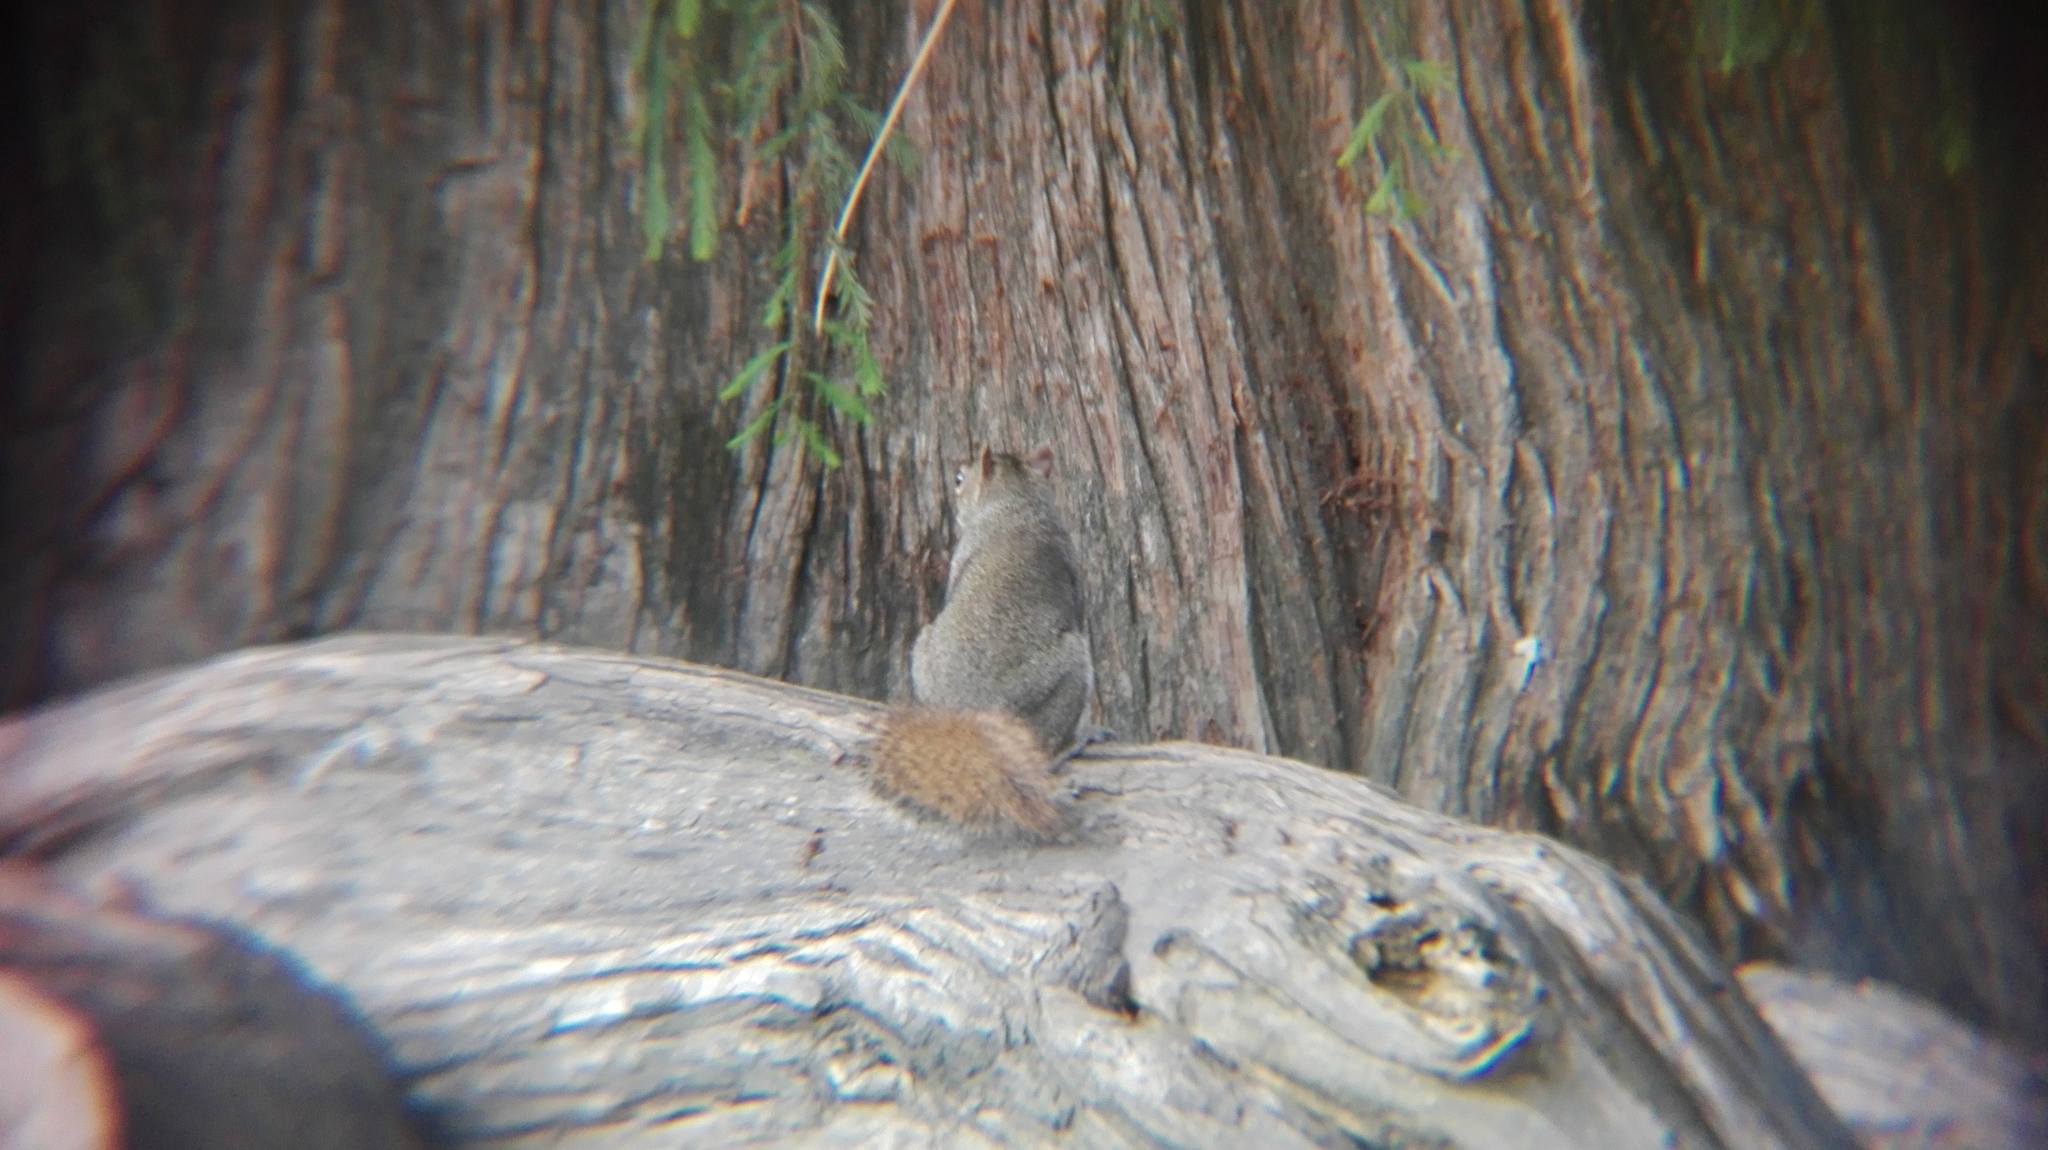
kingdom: Animalia
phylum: Chordata
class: Mammalia
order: Rodentia
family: Sciuridae
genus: Sciurus
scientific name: Sciurus alleni
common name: Allen's squirrel
